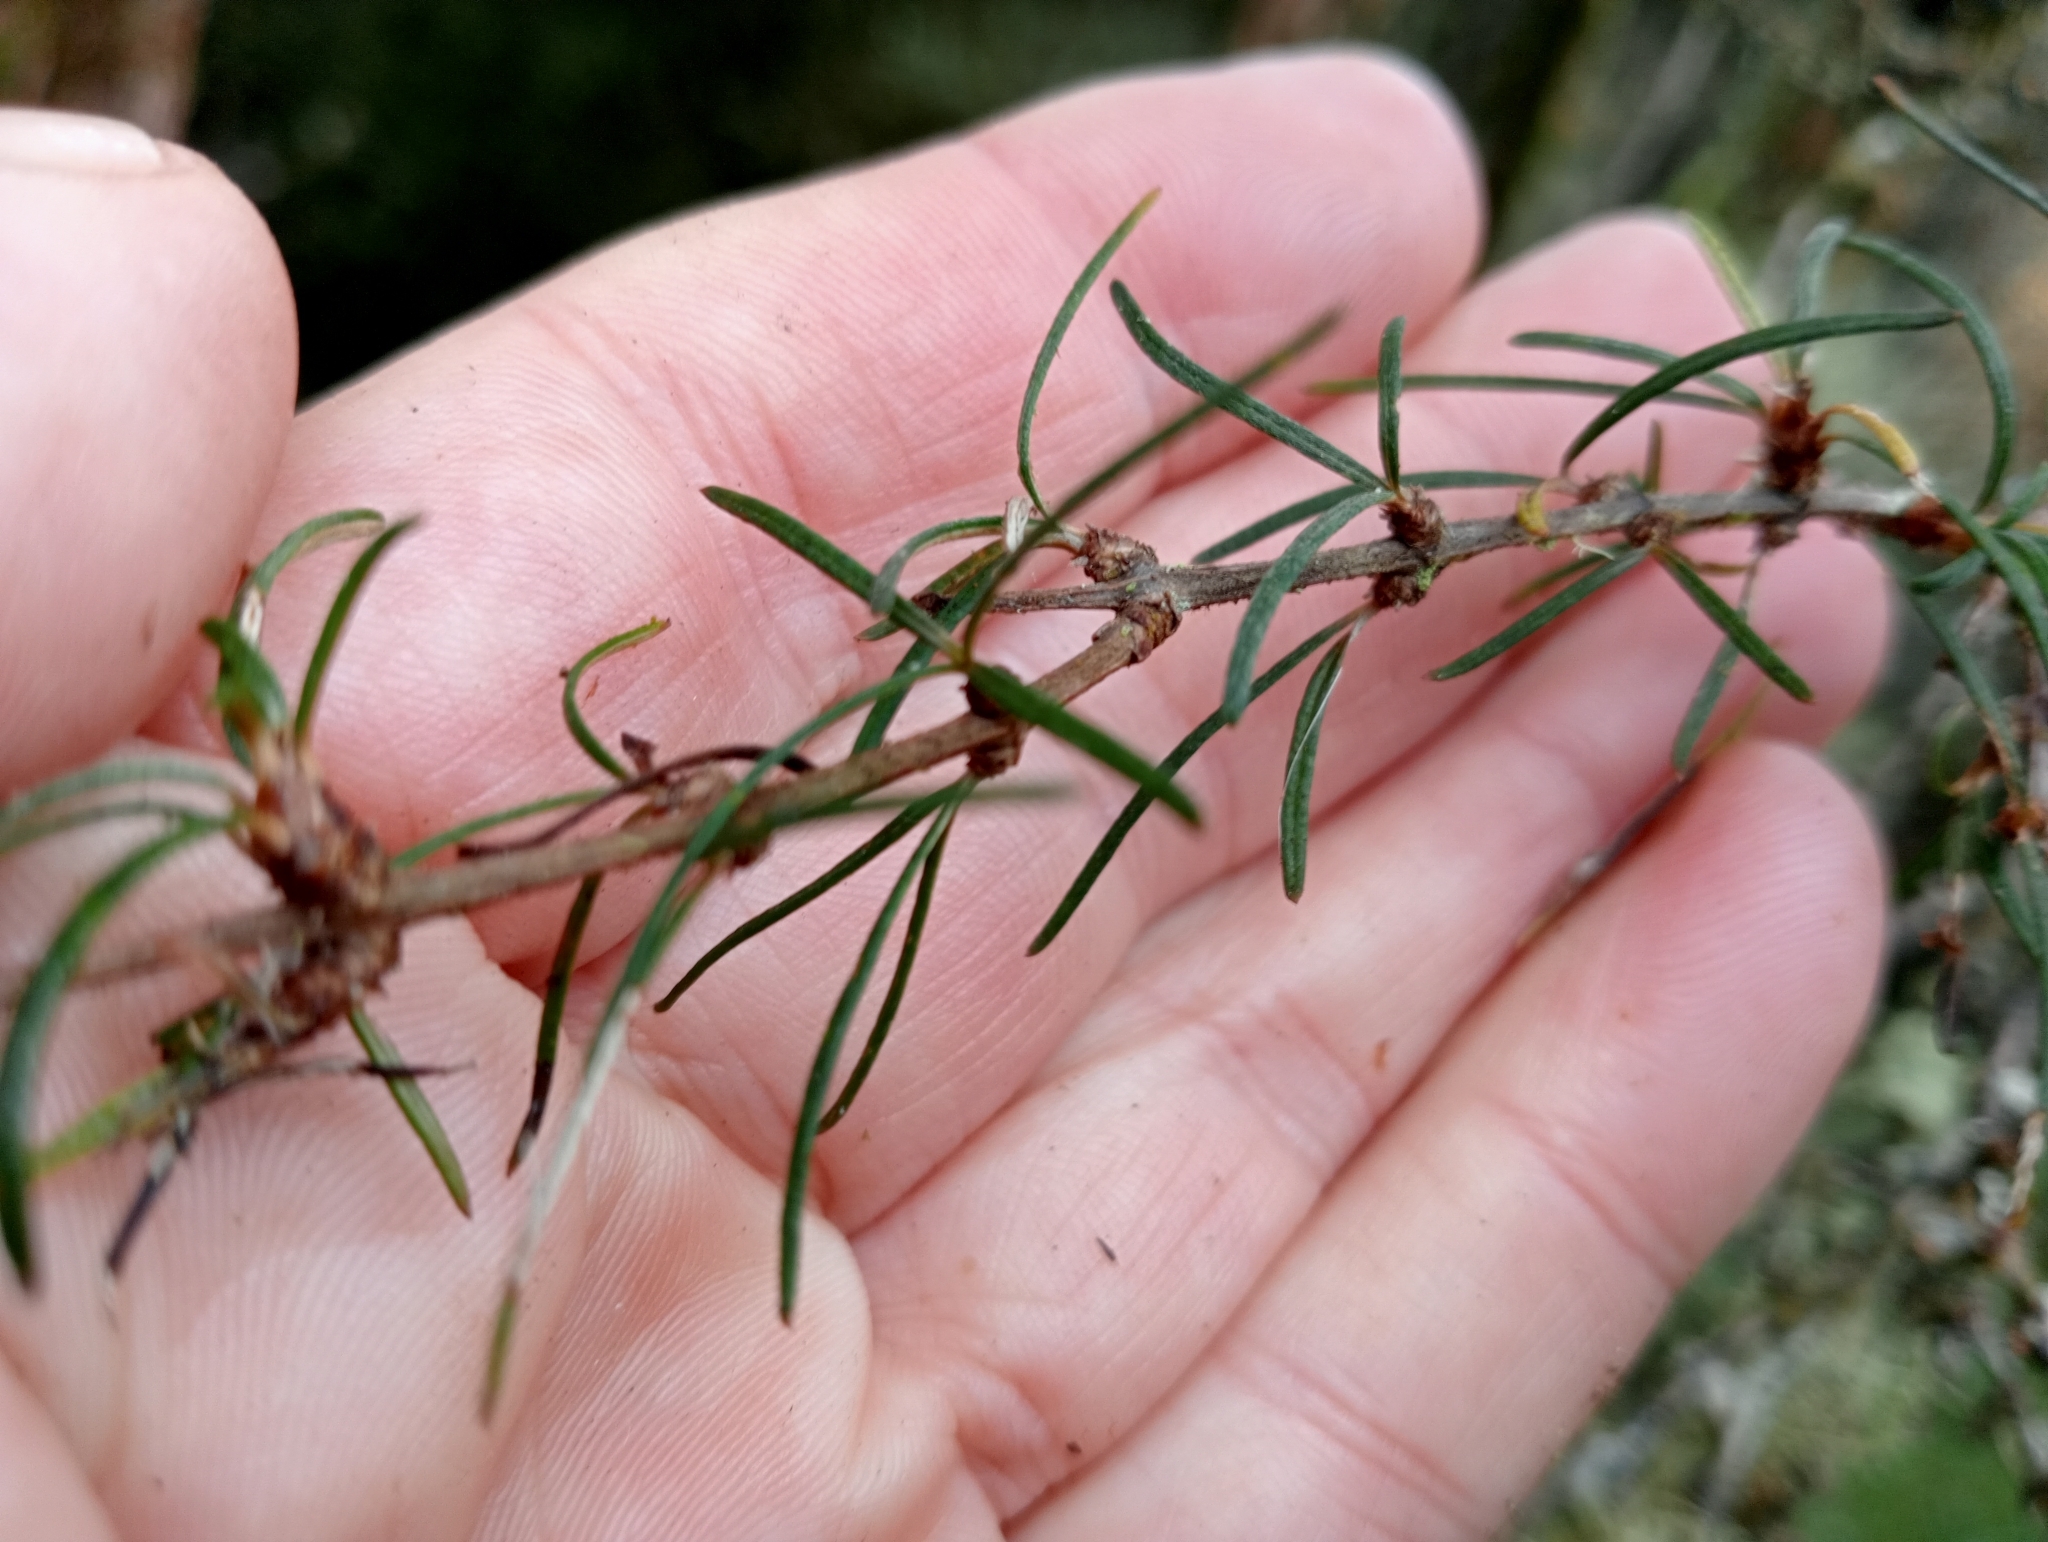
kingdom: Plantae
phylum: Tracheophyta
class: Magnoliopsida
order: Asterales
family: Asteraceae
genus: Olearia
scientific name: Olearia lineata
